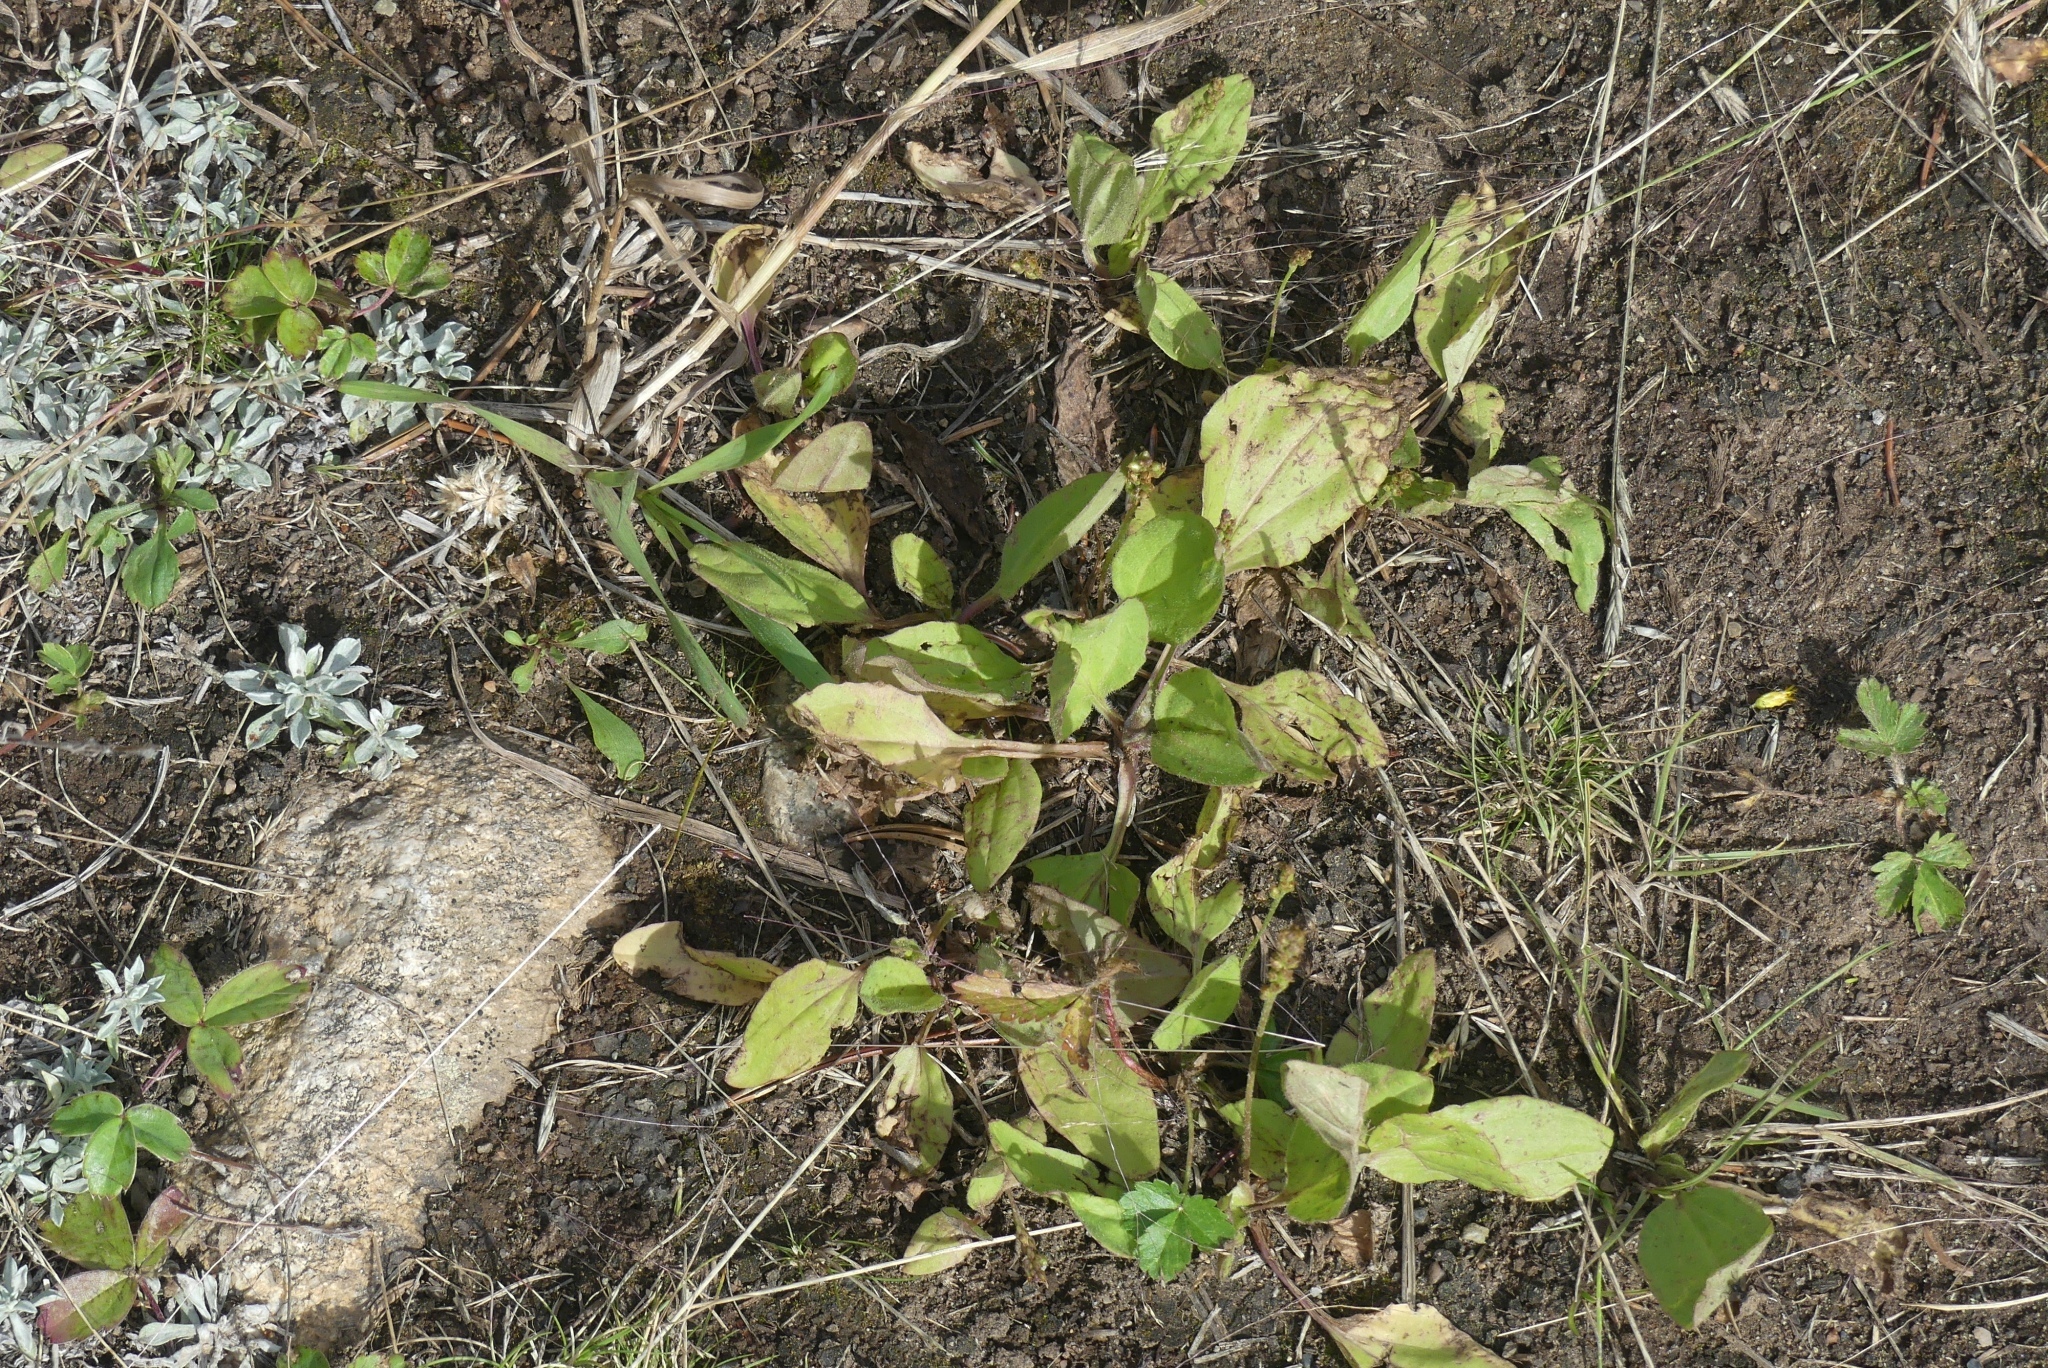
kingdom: Plantae
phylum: Tracheophyta
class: Magnoliopsida
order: Lamiales
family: Plantaginaceae
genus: Plantago
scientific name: Plantago major
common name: Common plantain
